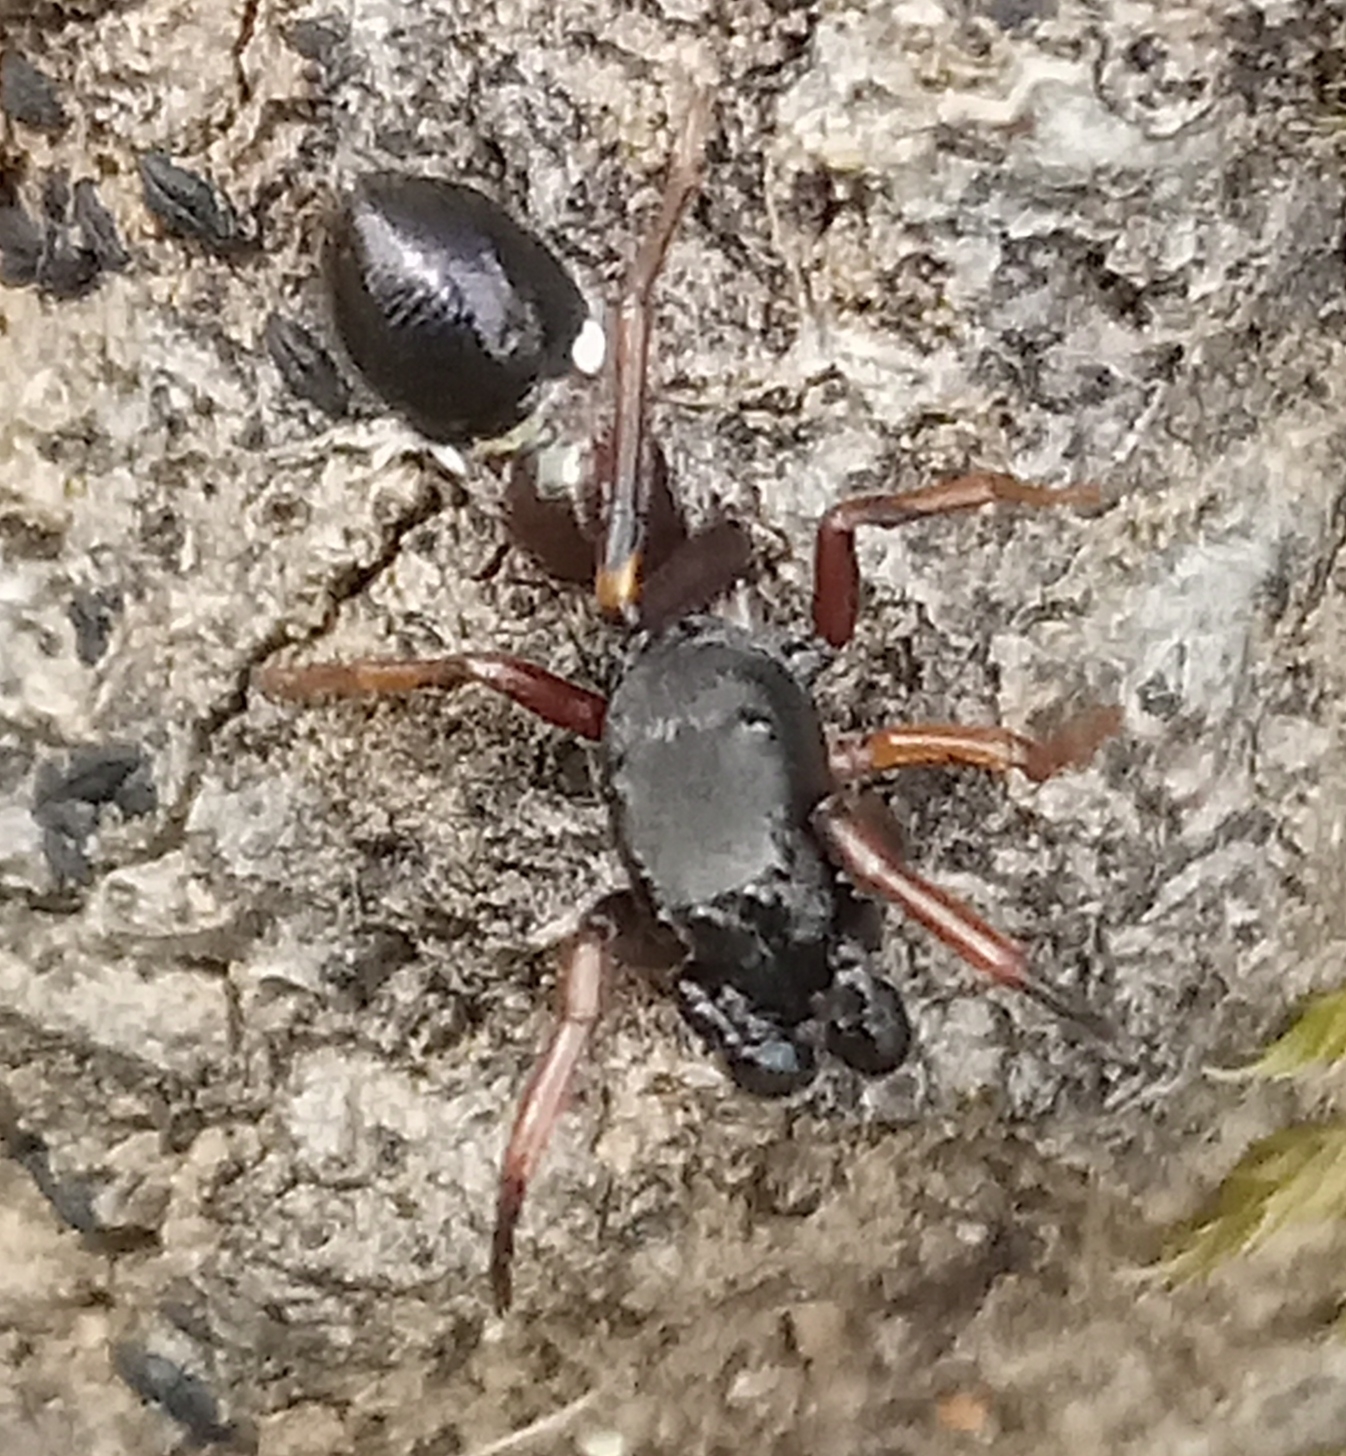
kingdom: Animalia
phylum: Arthropoda
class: Arachnida
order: Araneae
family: Salticidae
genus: Leptorchestes
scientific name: Leptorchestes berolinensis
